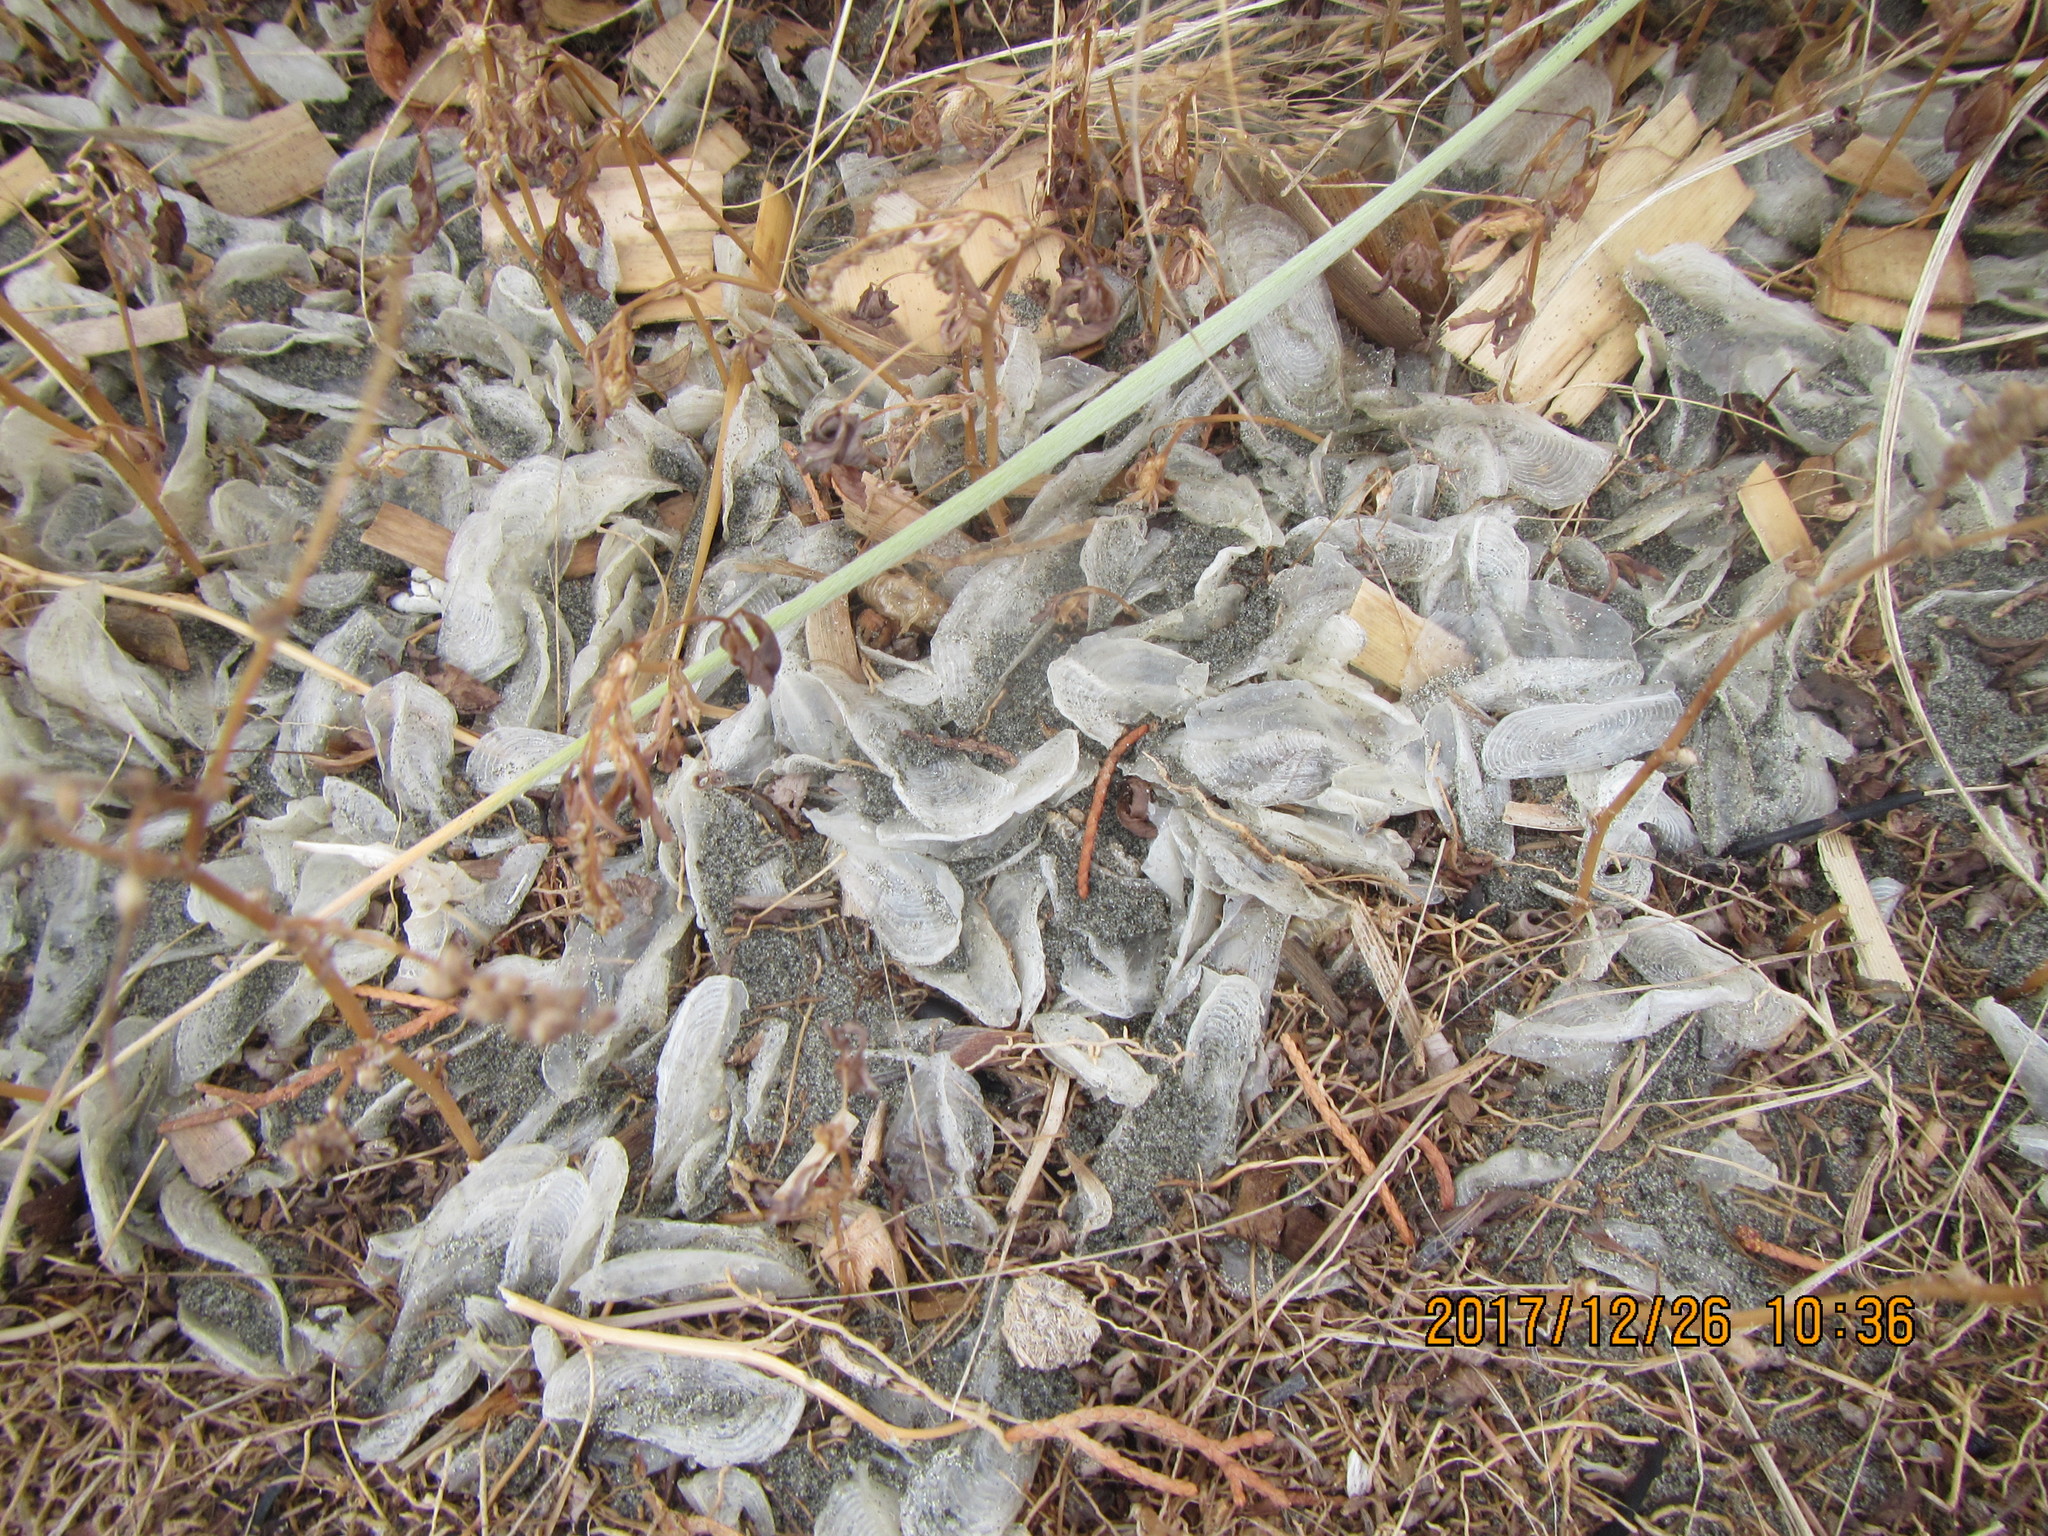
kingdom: Animalia
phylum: Cnidaria
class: Hydrozoa
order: Anthoathecata
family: Porpitidae
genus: Velella
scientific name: Velella velella
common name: By-the-wind-sailor
